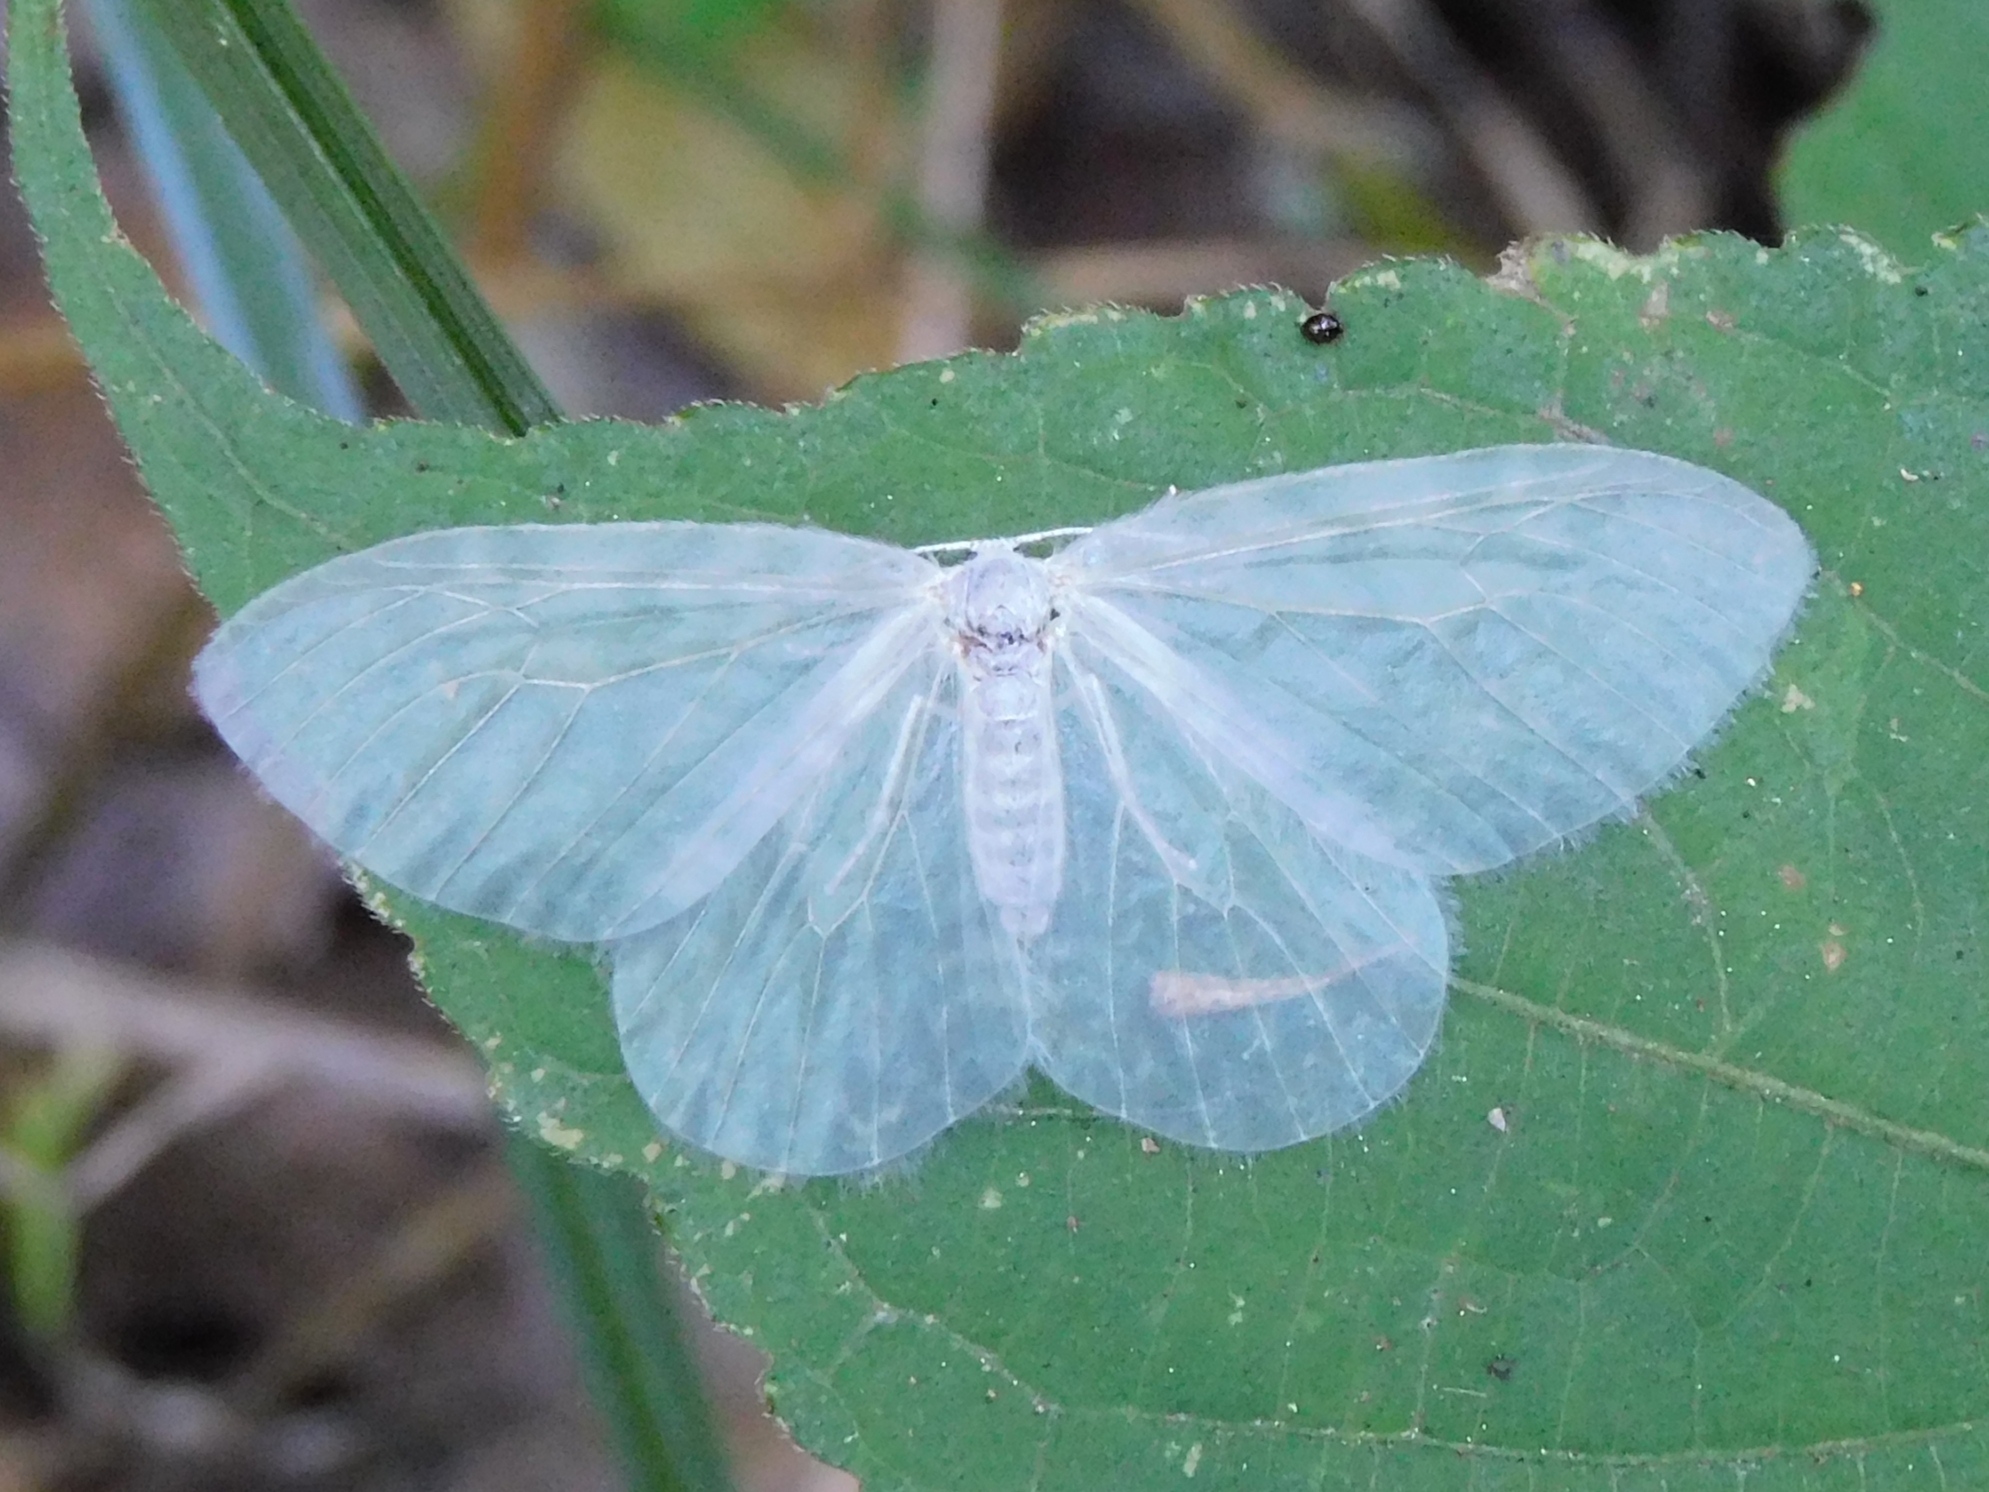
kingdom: Animalia
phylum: Arthropoda
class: Insecta
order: Lepidoptera
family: Drepanidae
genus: Deroca
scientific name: Deroca hyalina
